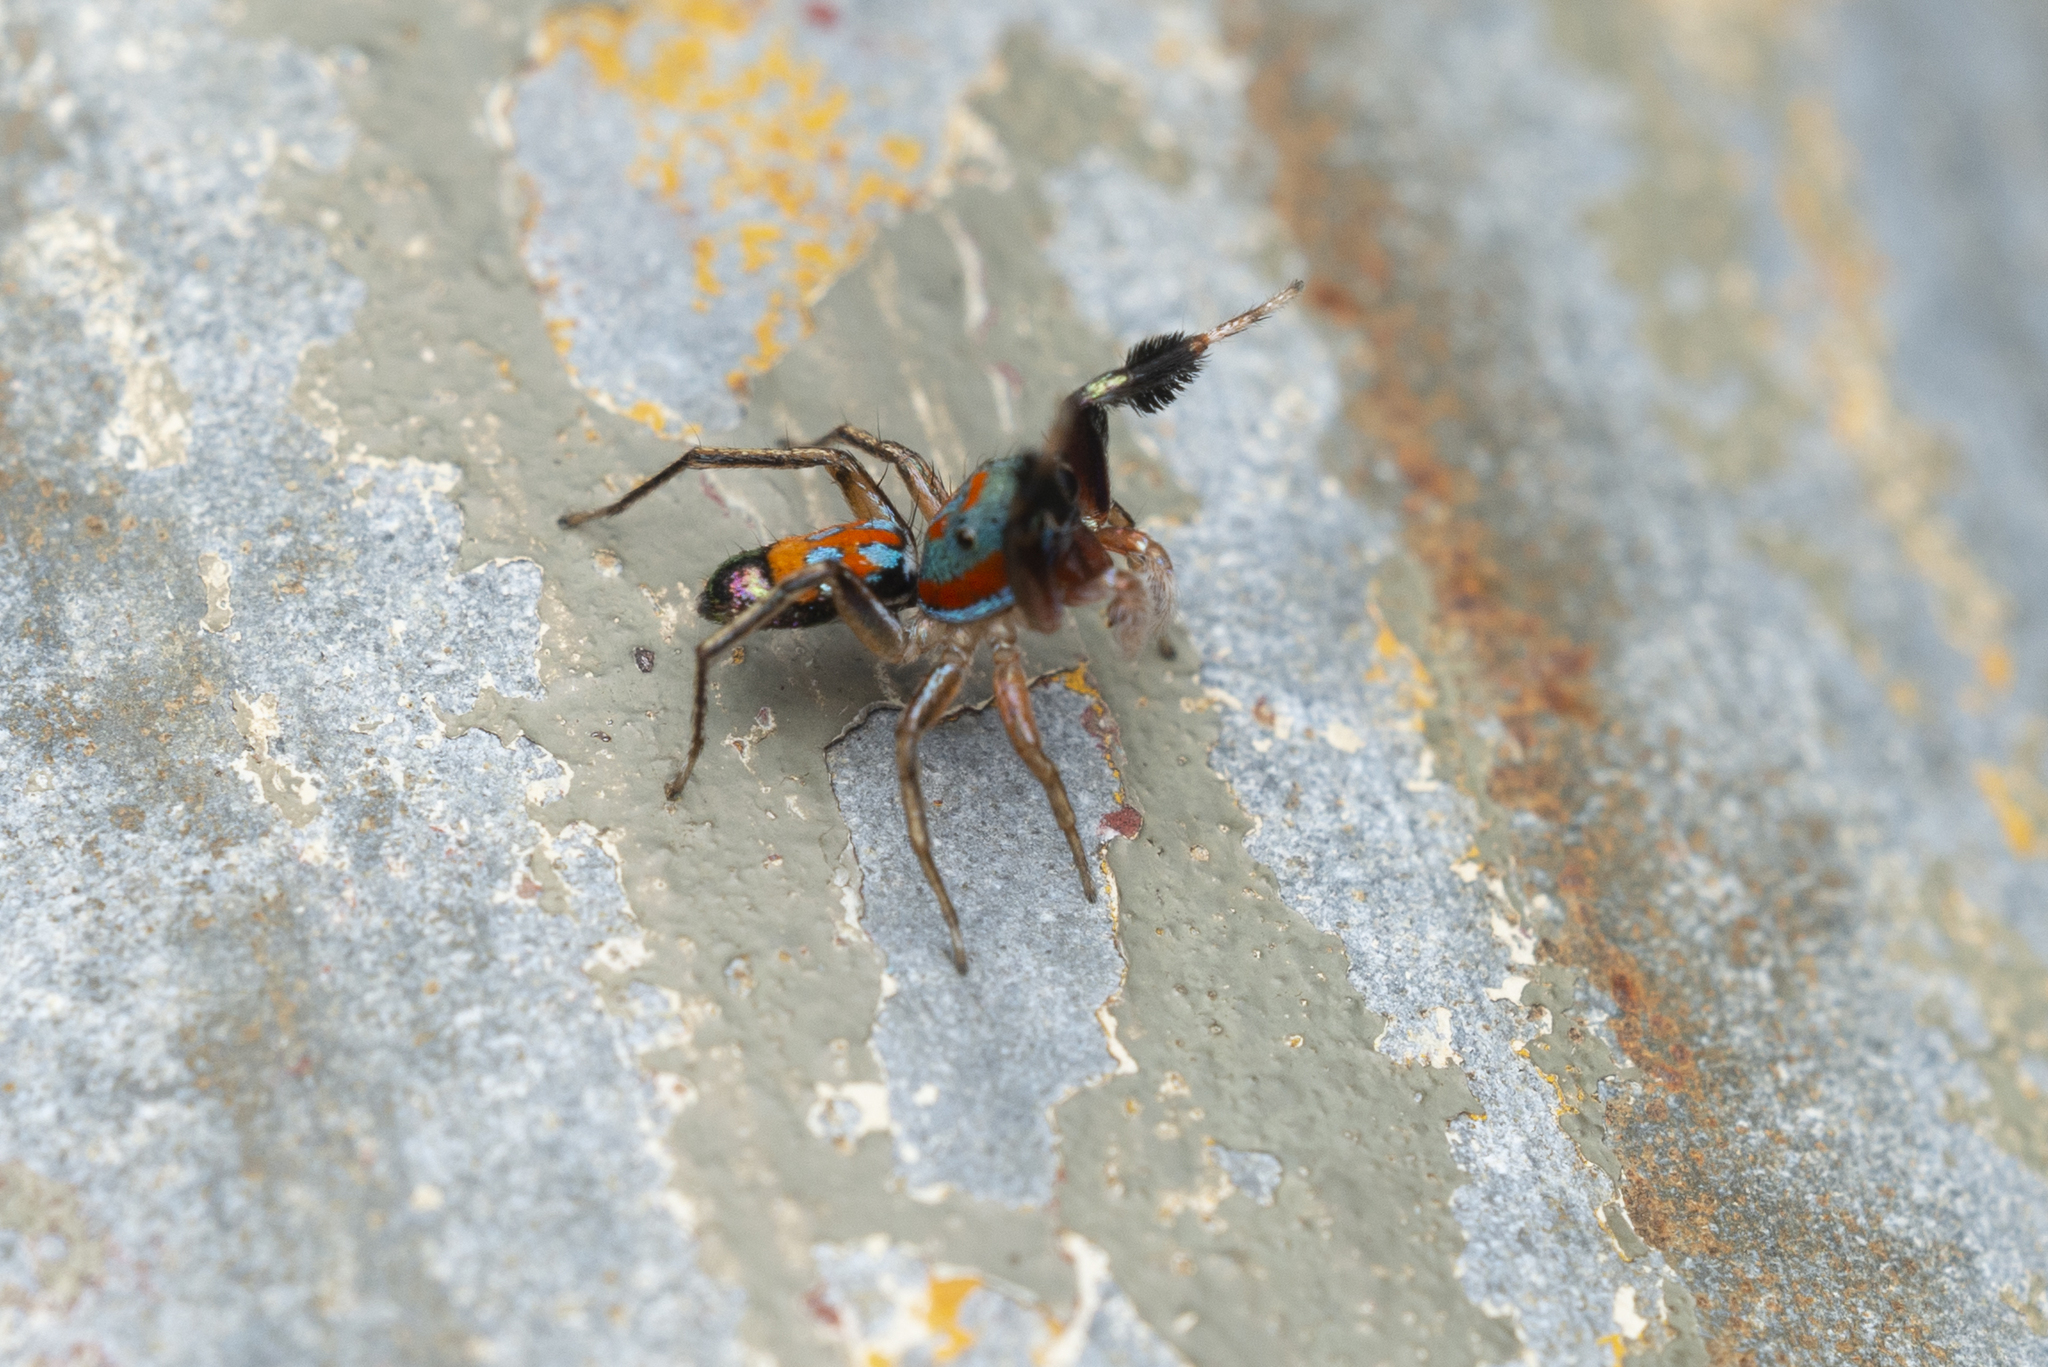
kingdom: Animalia
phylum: Arthropoda
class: Arachnida
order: Araneae
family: Salticidae
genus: Siler
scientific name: Siler collingwoodi
